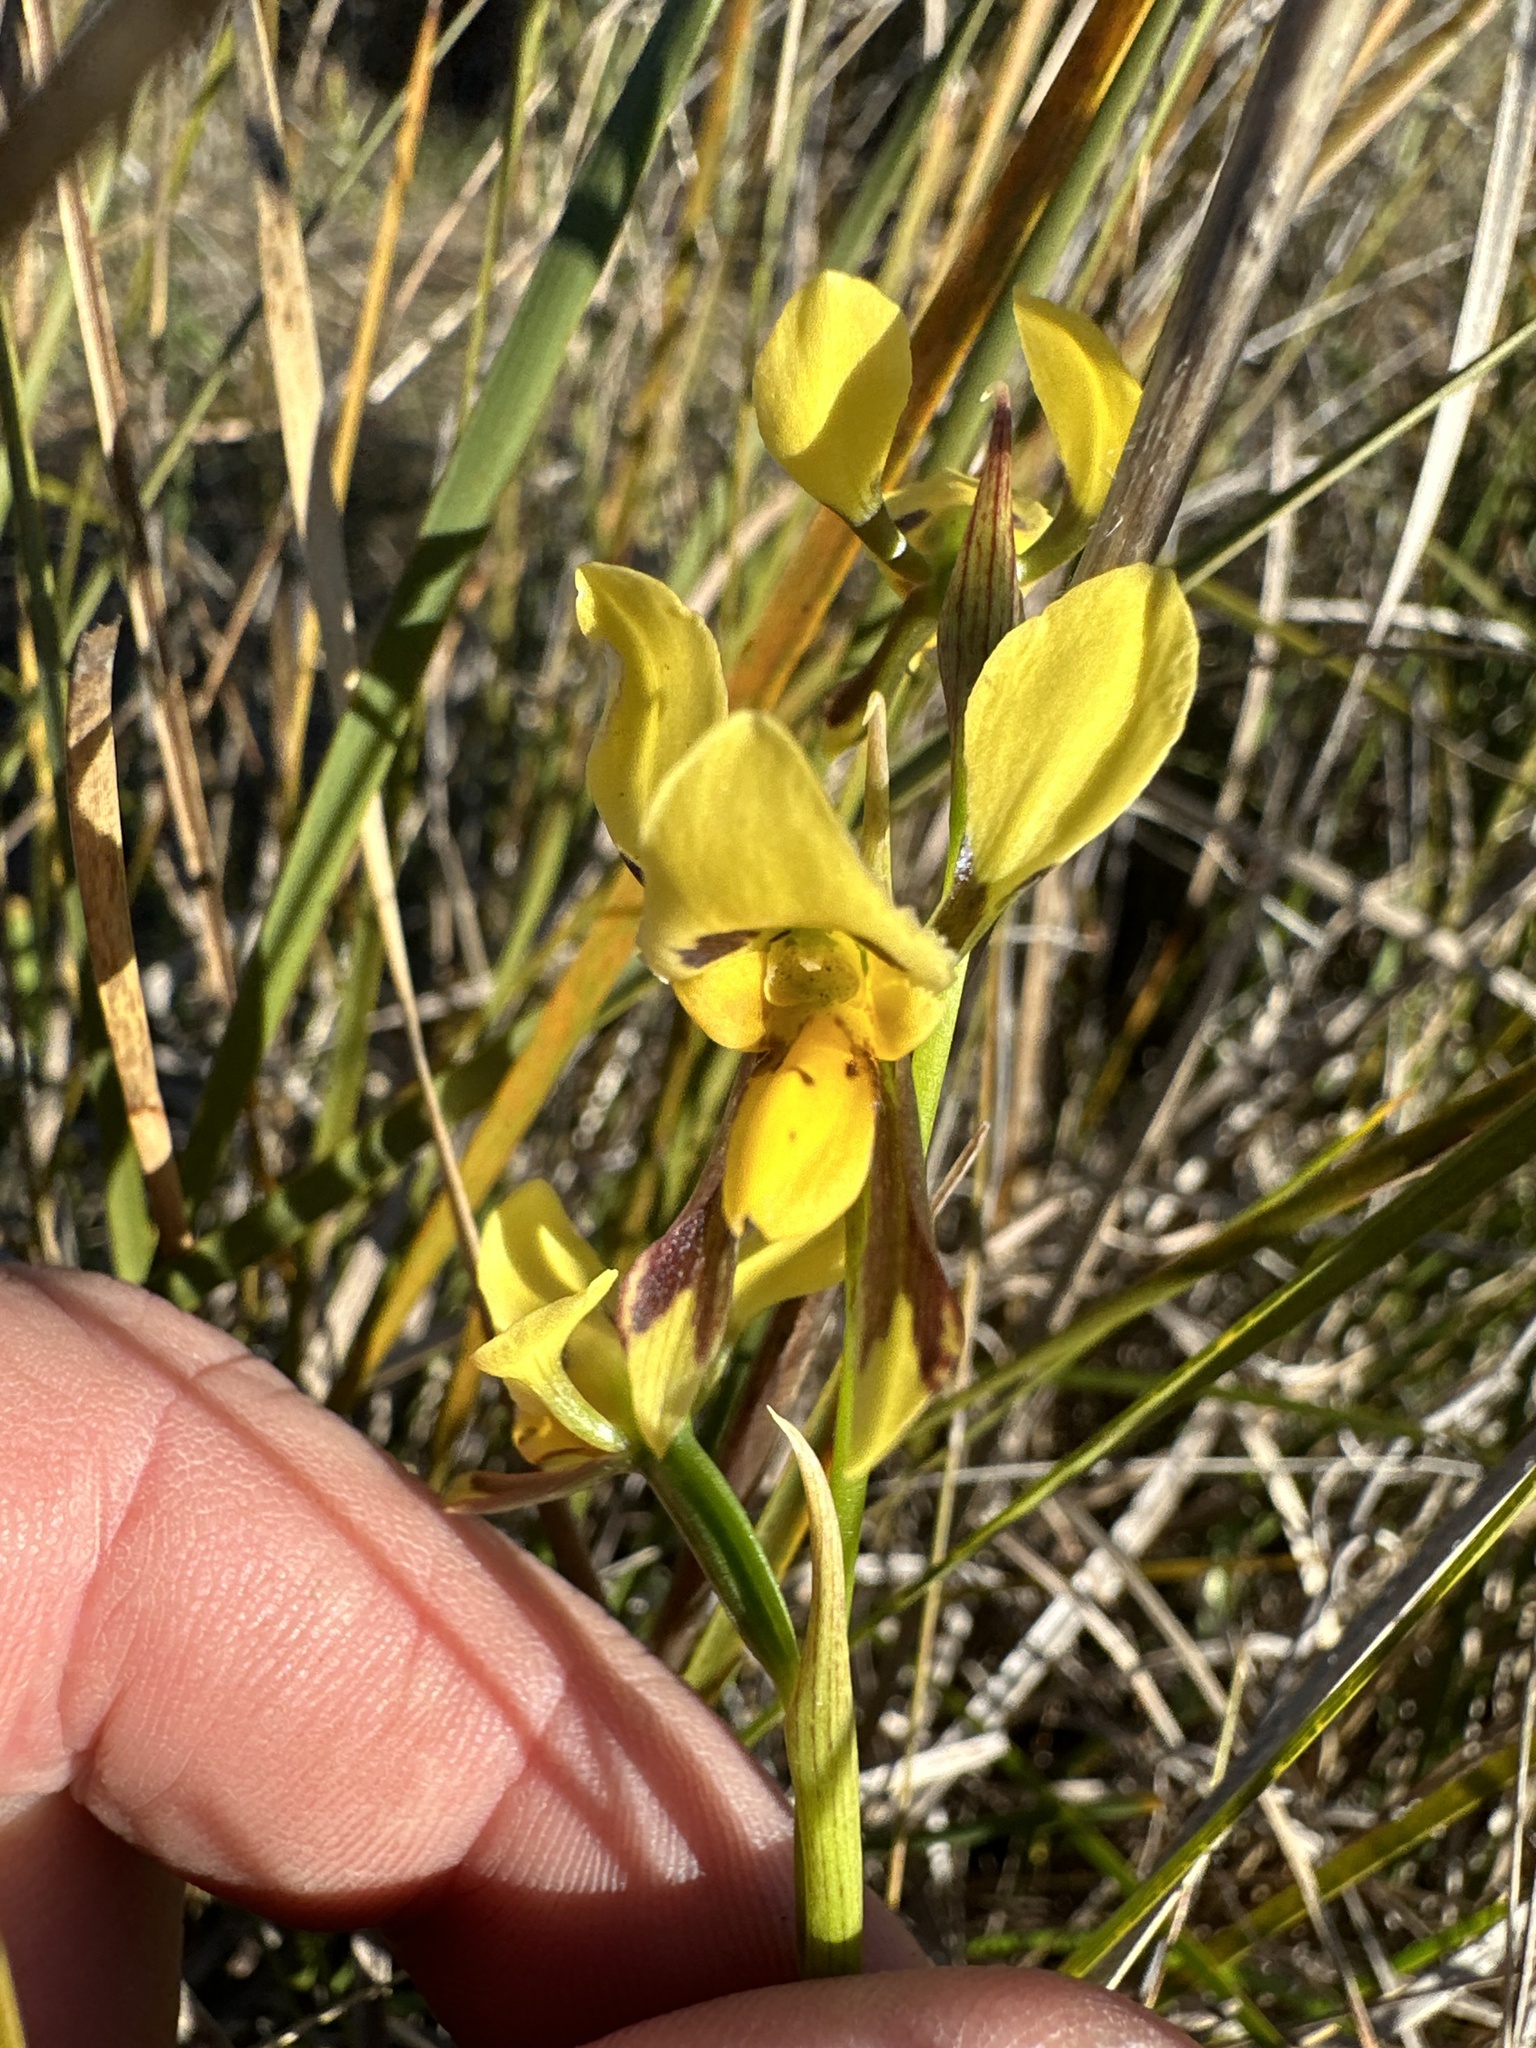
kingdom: Plantae
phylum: Tracheophyta
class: Liliopsida
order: Asparagales
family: Orchidaceae
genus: Diuris
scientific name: Diuris sulphurea
